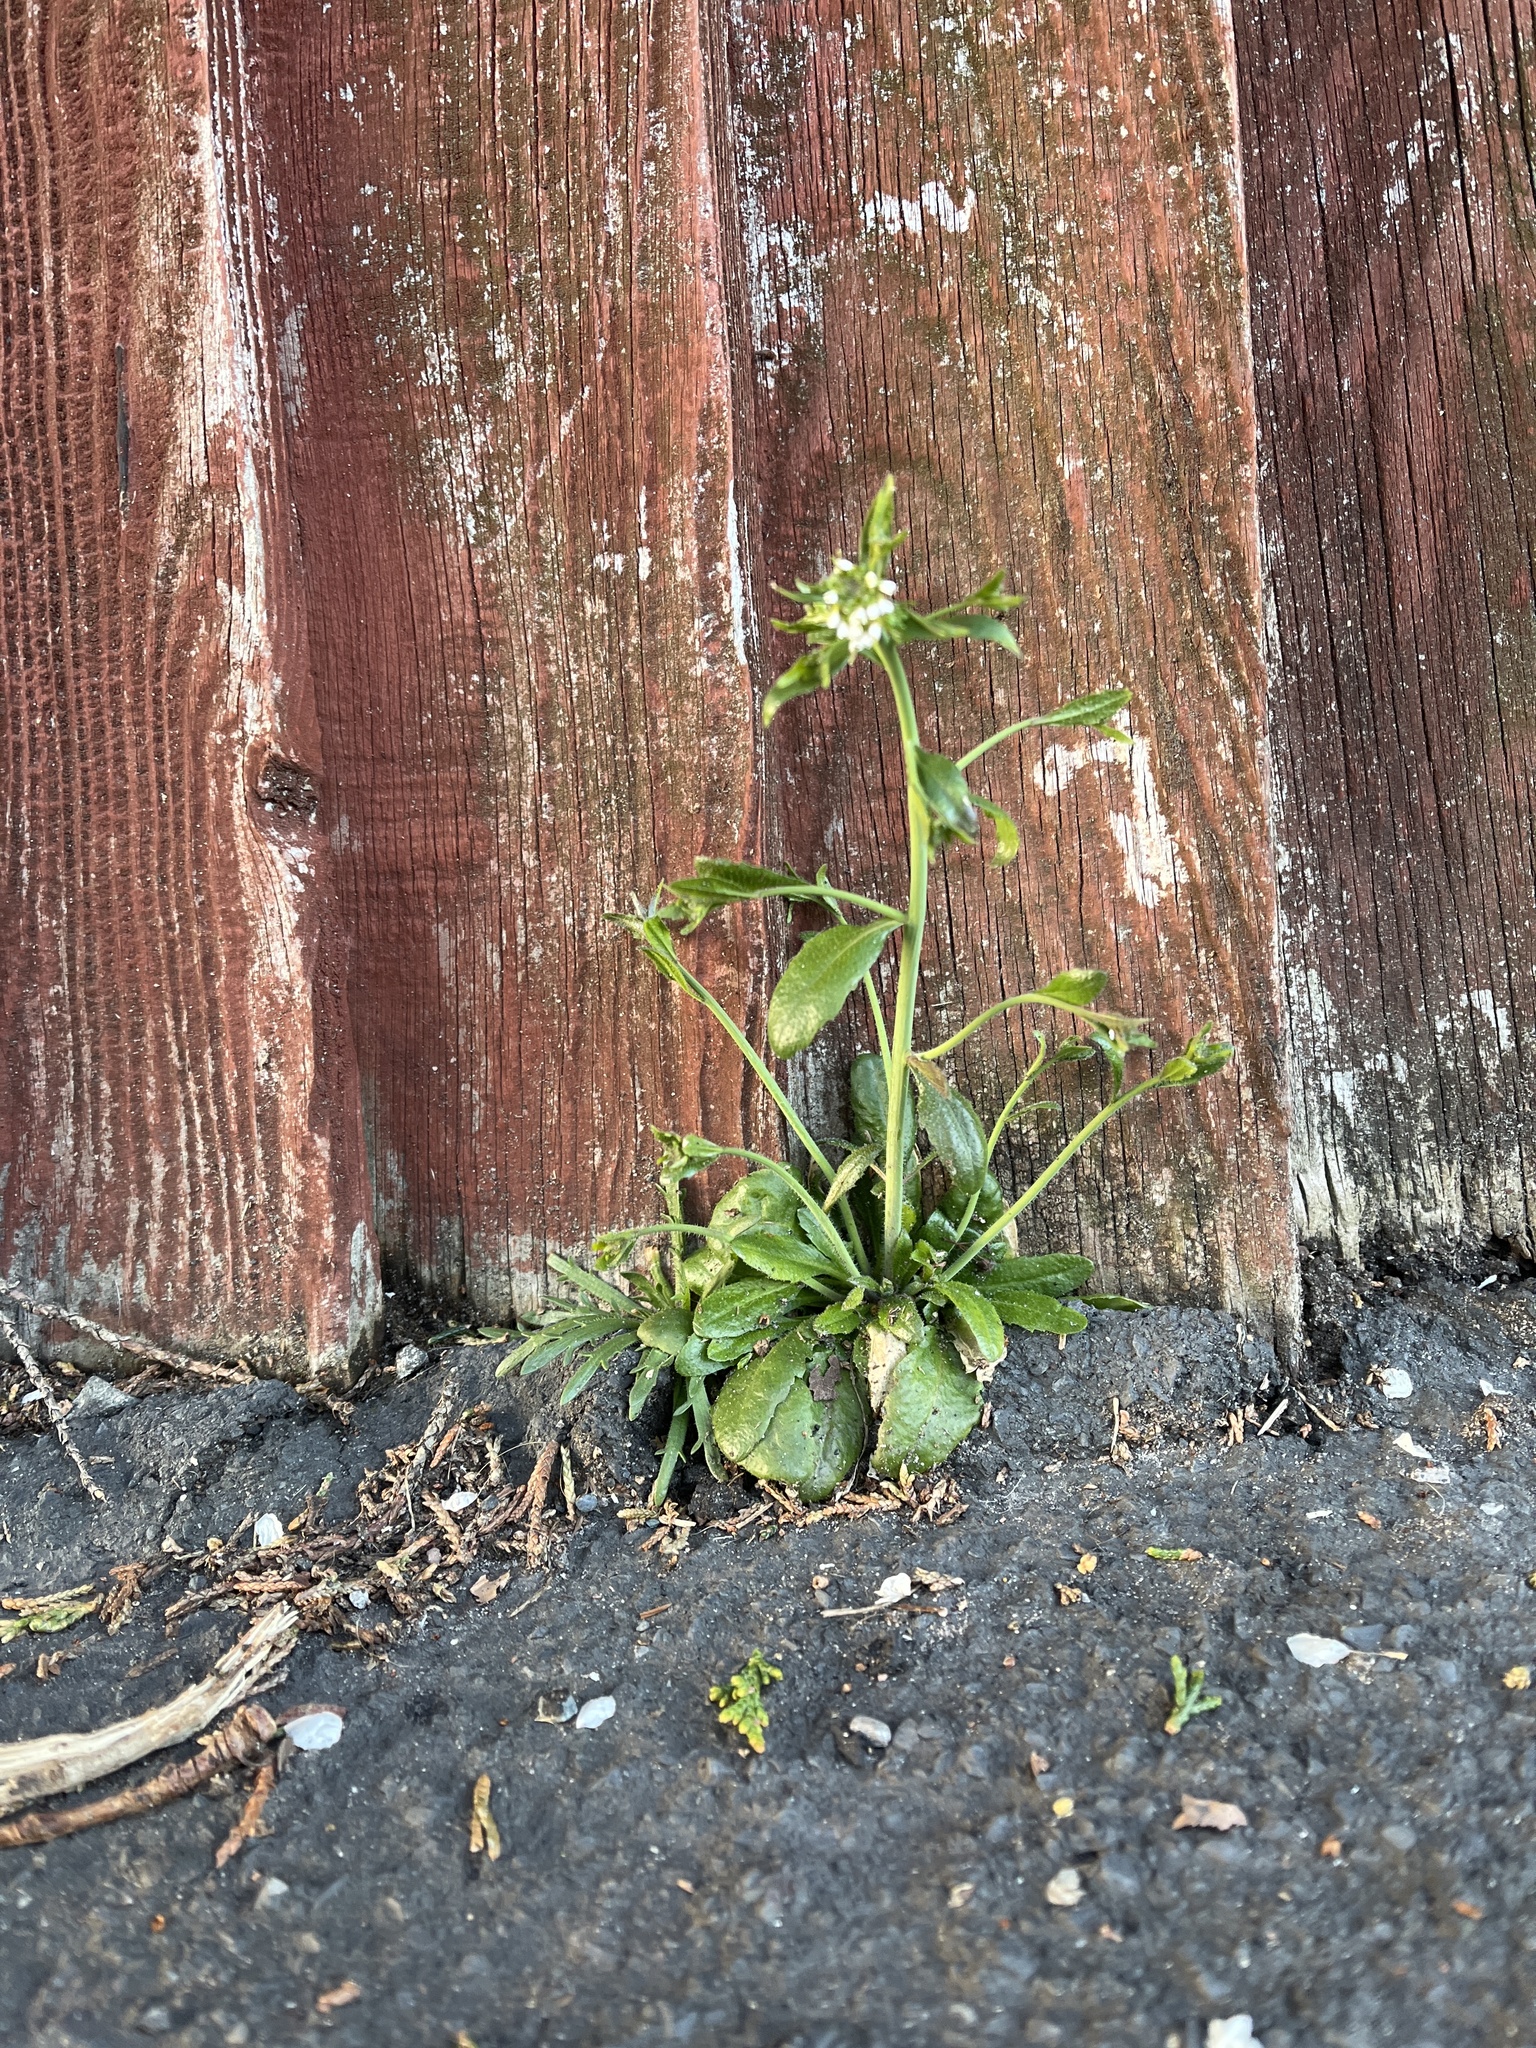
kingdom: Plantae
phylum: Tracheophyta
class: Magnoliopsida
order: Brassicales
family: Brassicaceae
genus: Arabidopsis
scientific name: Arabidopsis thaliana
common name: Thale cress
